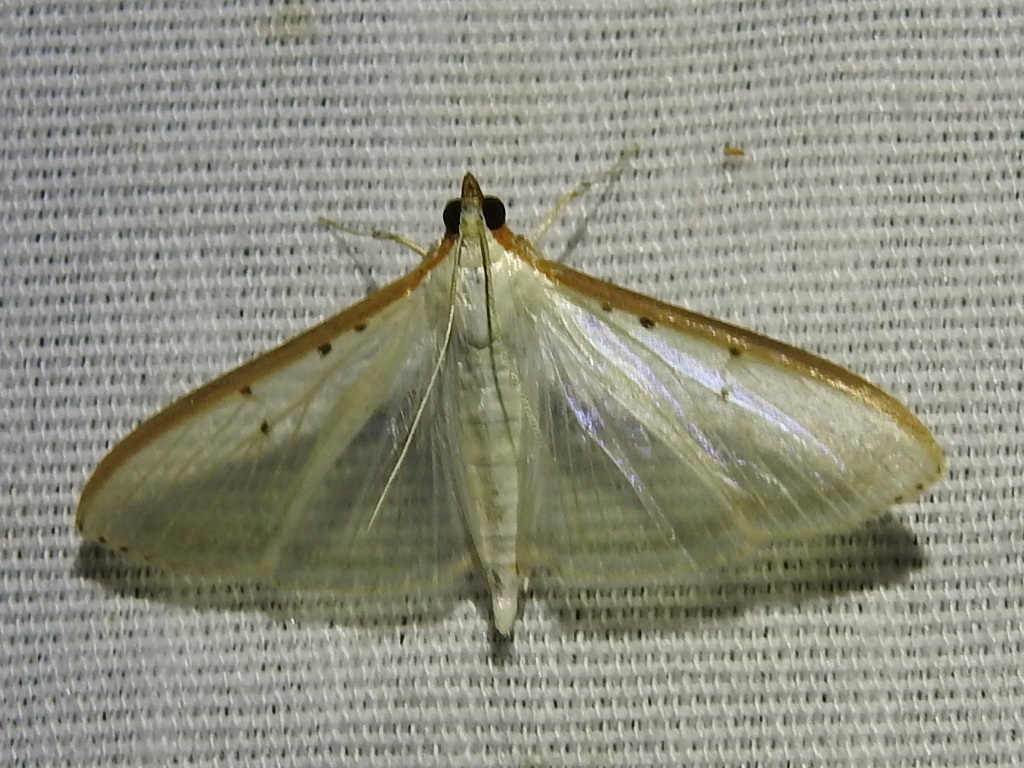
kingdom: Animalia
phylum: Arthropoda
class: Insecta
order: Lepidoptera
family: Crambidae
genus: Palpita
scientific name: Palpita quadristigmalis
